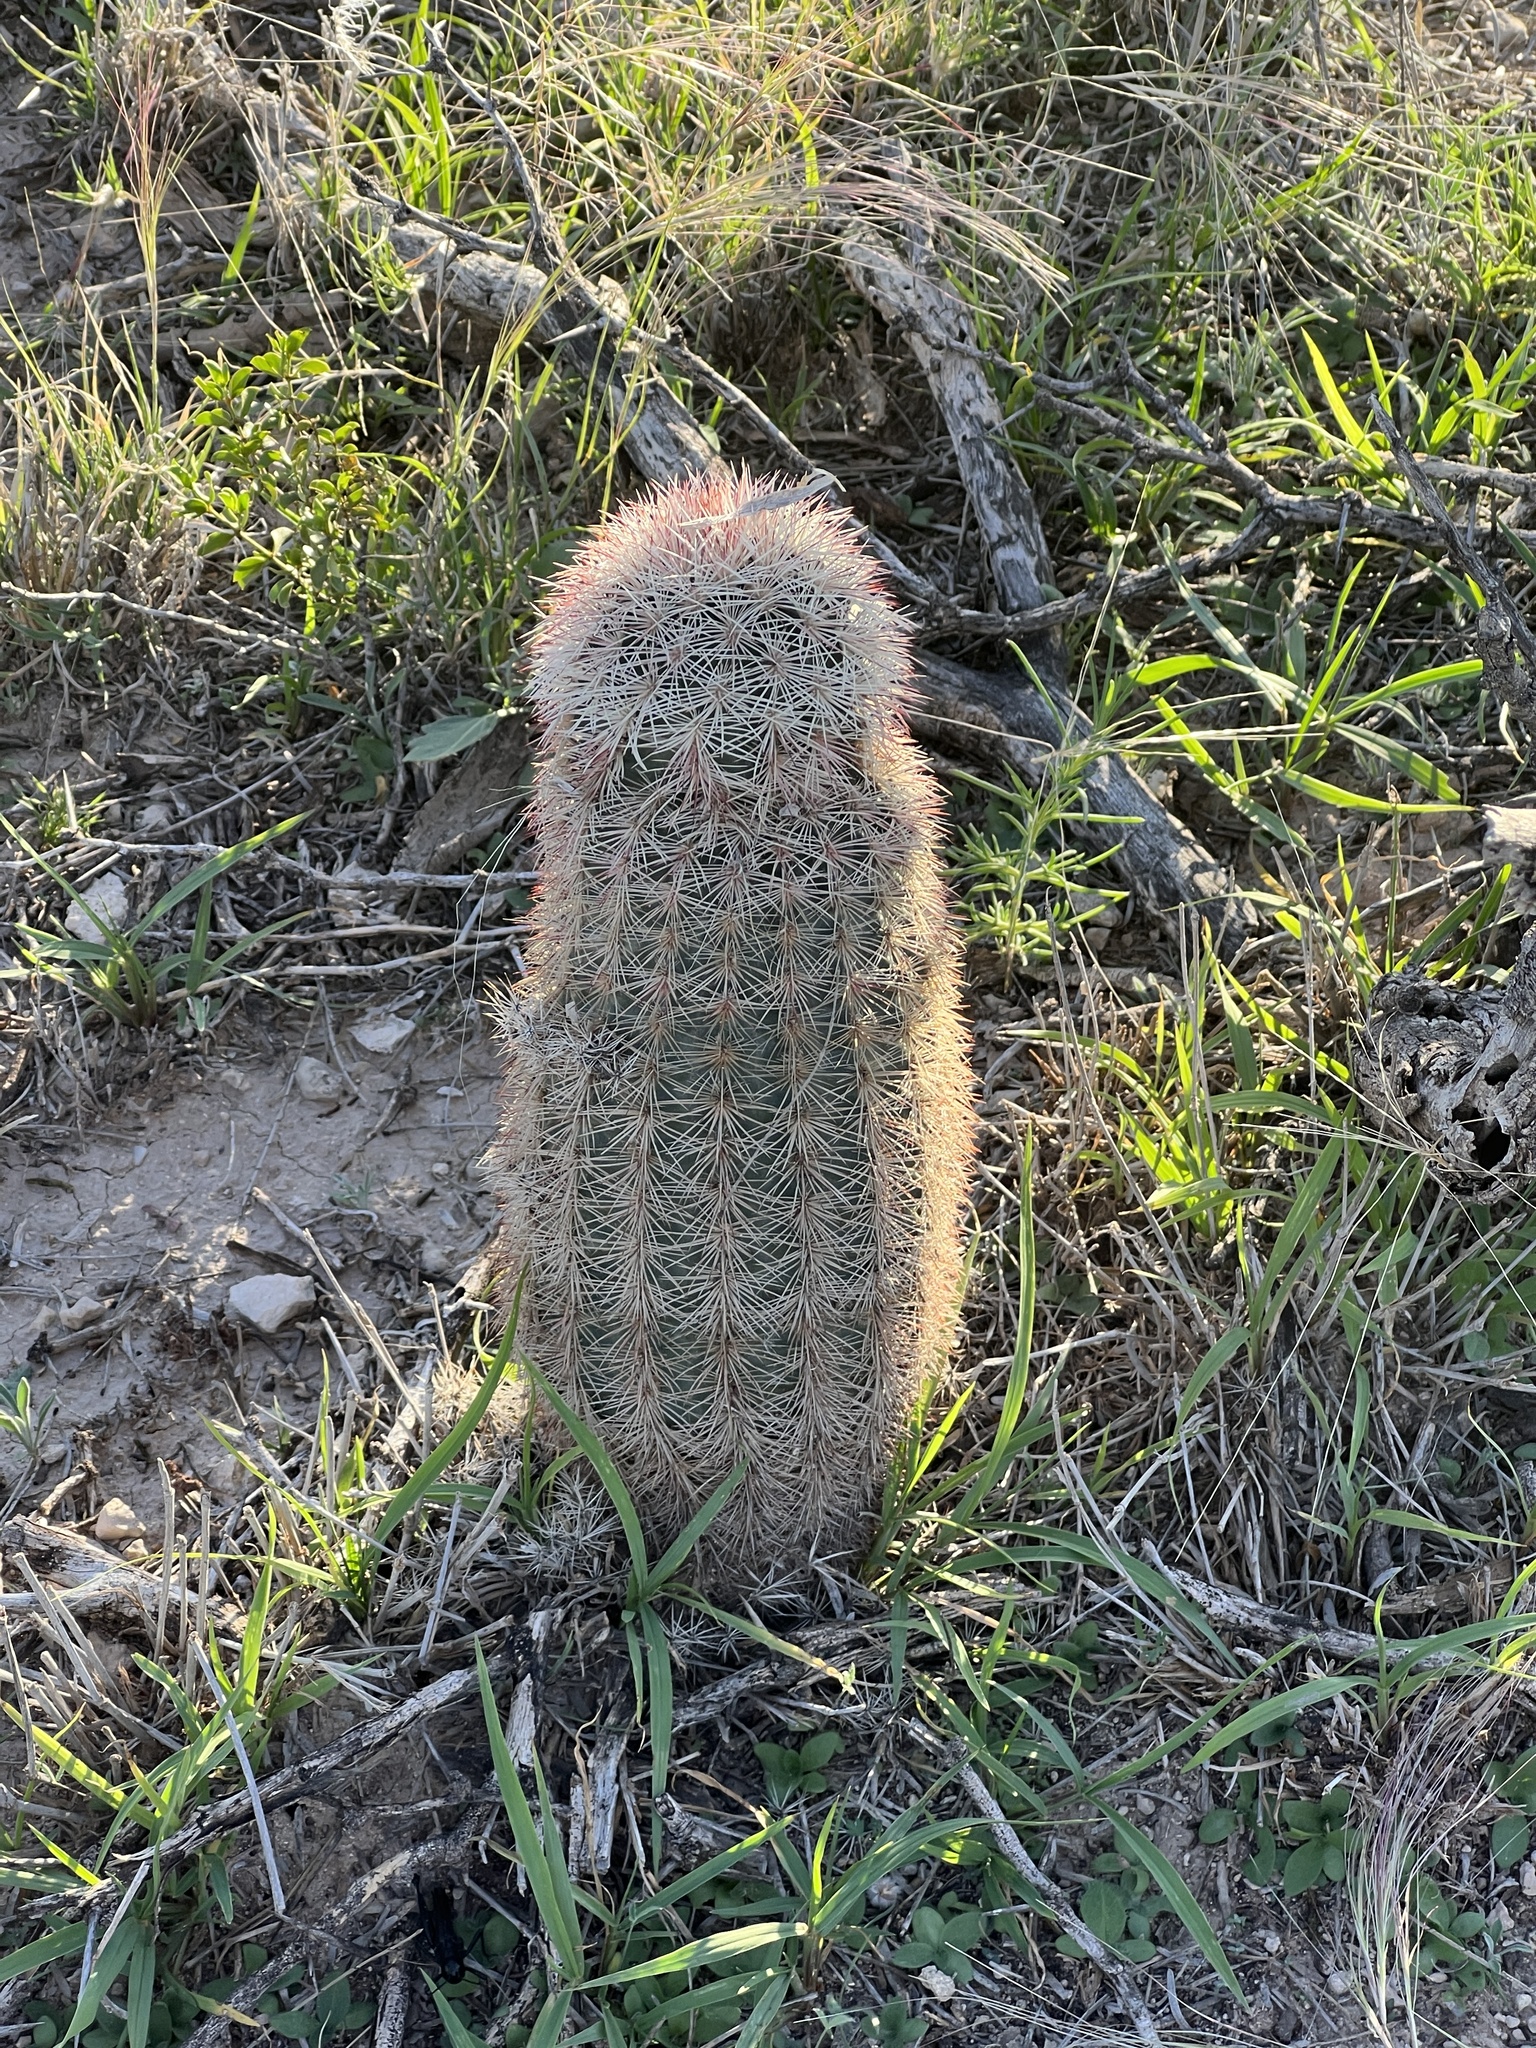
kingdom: Plantae
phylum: Tracheophyta
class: Magnoliopsida
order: Caryophyllales
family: Cactaceae
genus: Echinocereus
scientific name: Echinocereus dasyacanthus
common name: Spiny hedgehog cactus
